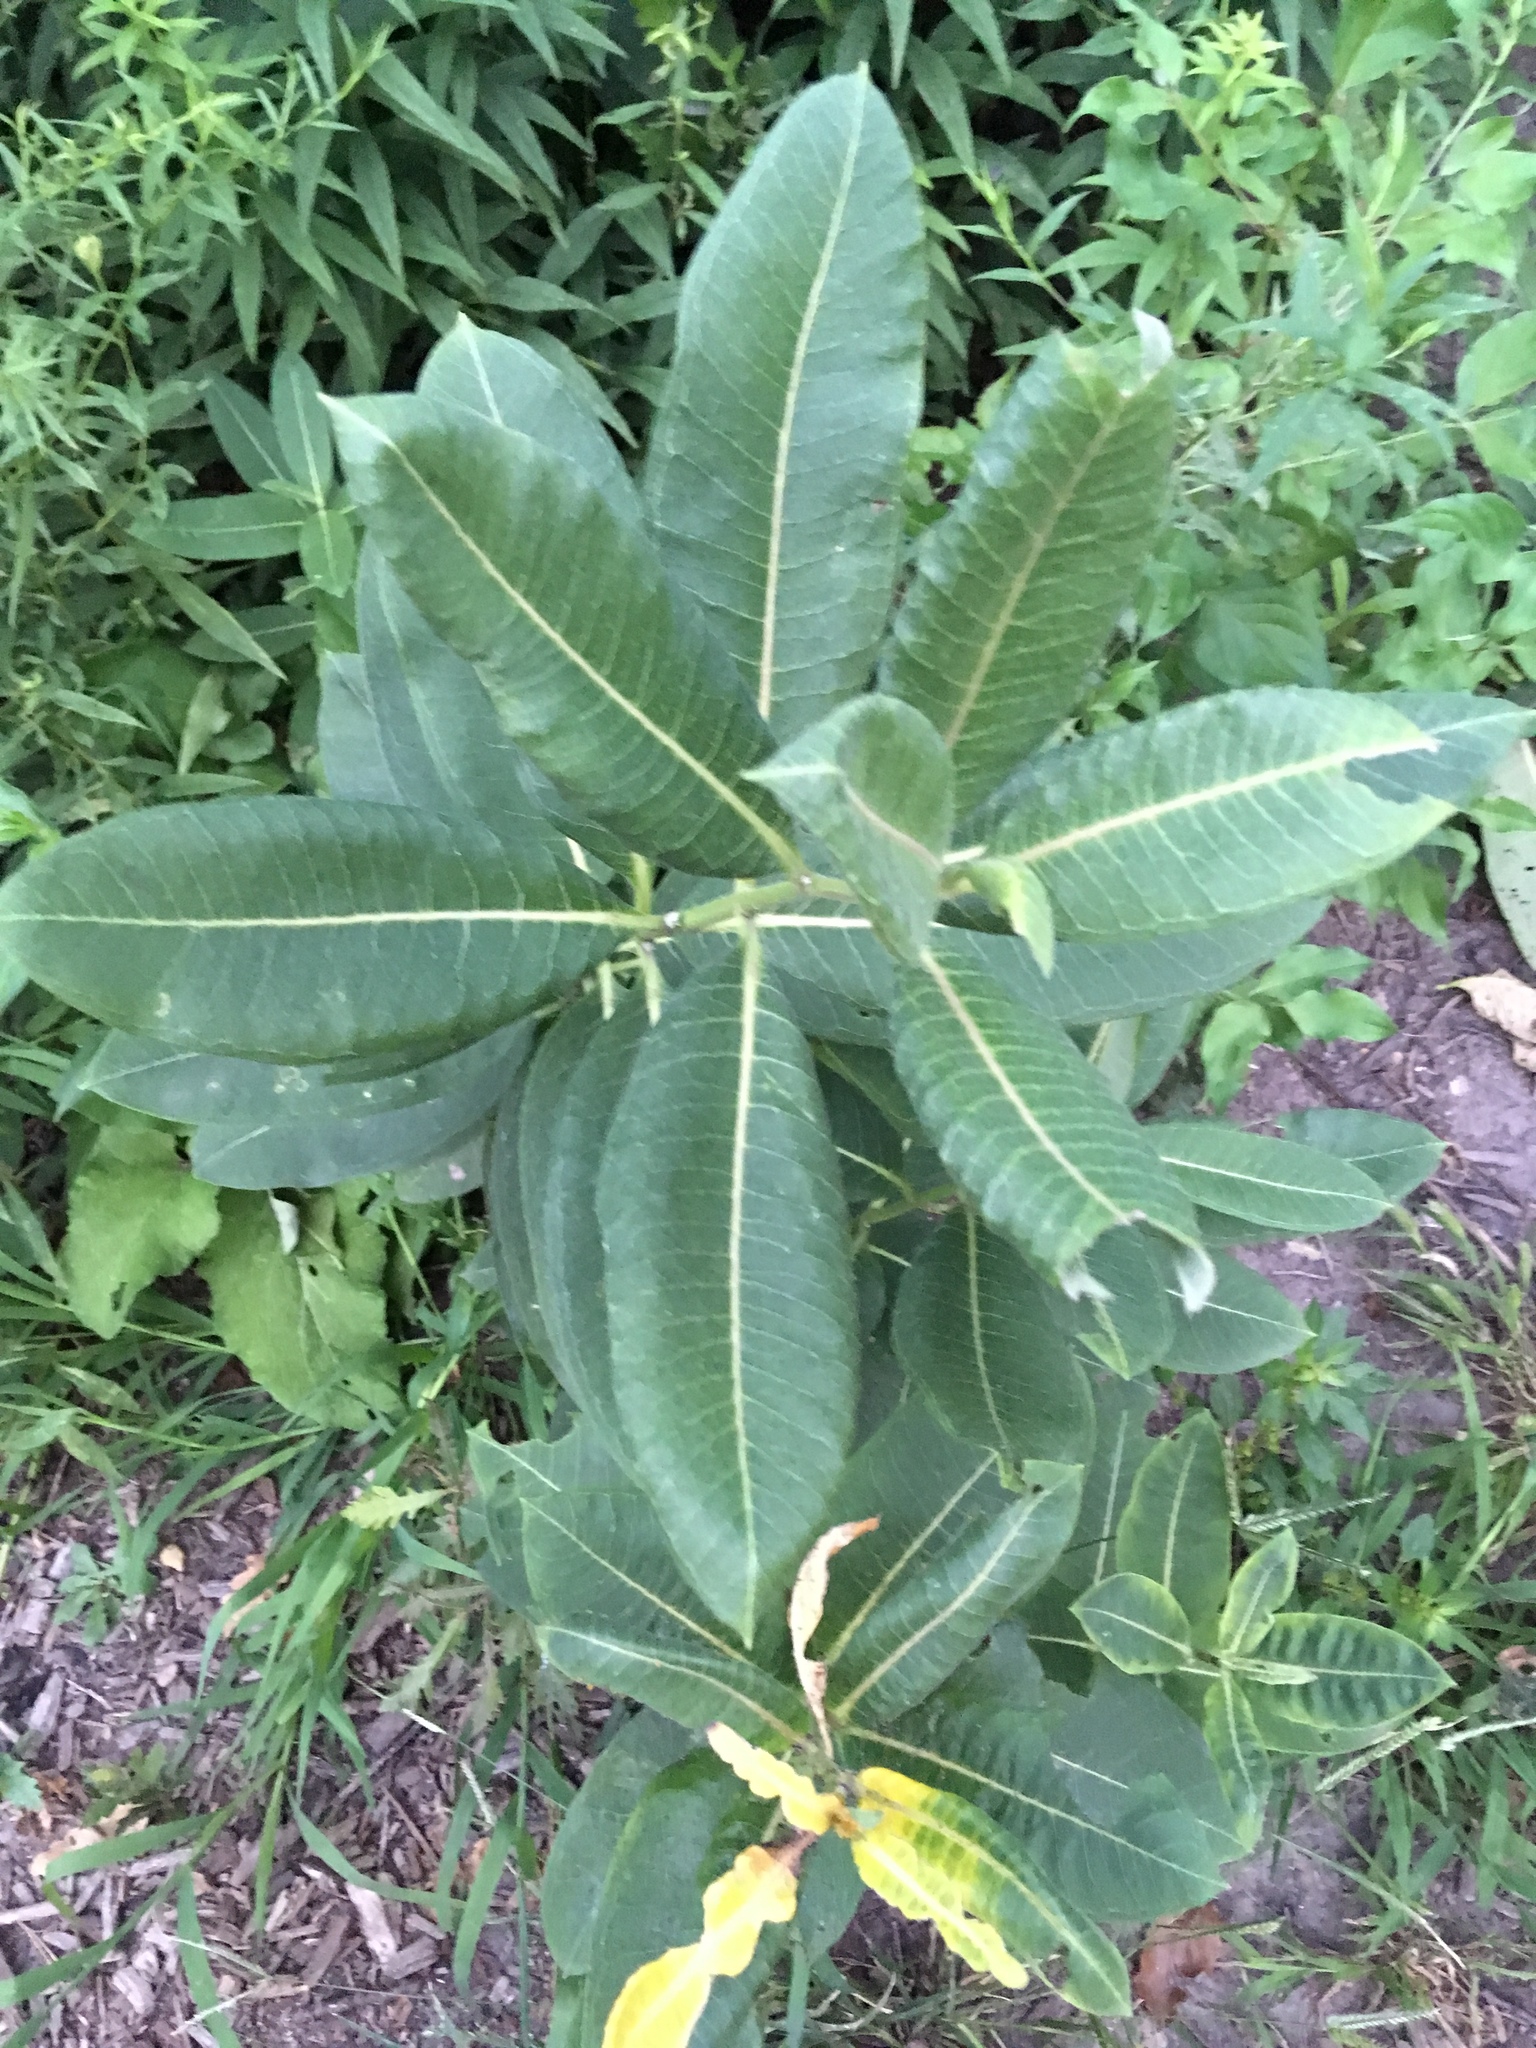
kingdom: Plantae
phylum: Tracheophyta
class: Magnoliopsida
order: Gentianales
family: Apocynaceae
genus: Asclepias
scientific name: Asclepias syriaca
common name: Common milkweed
